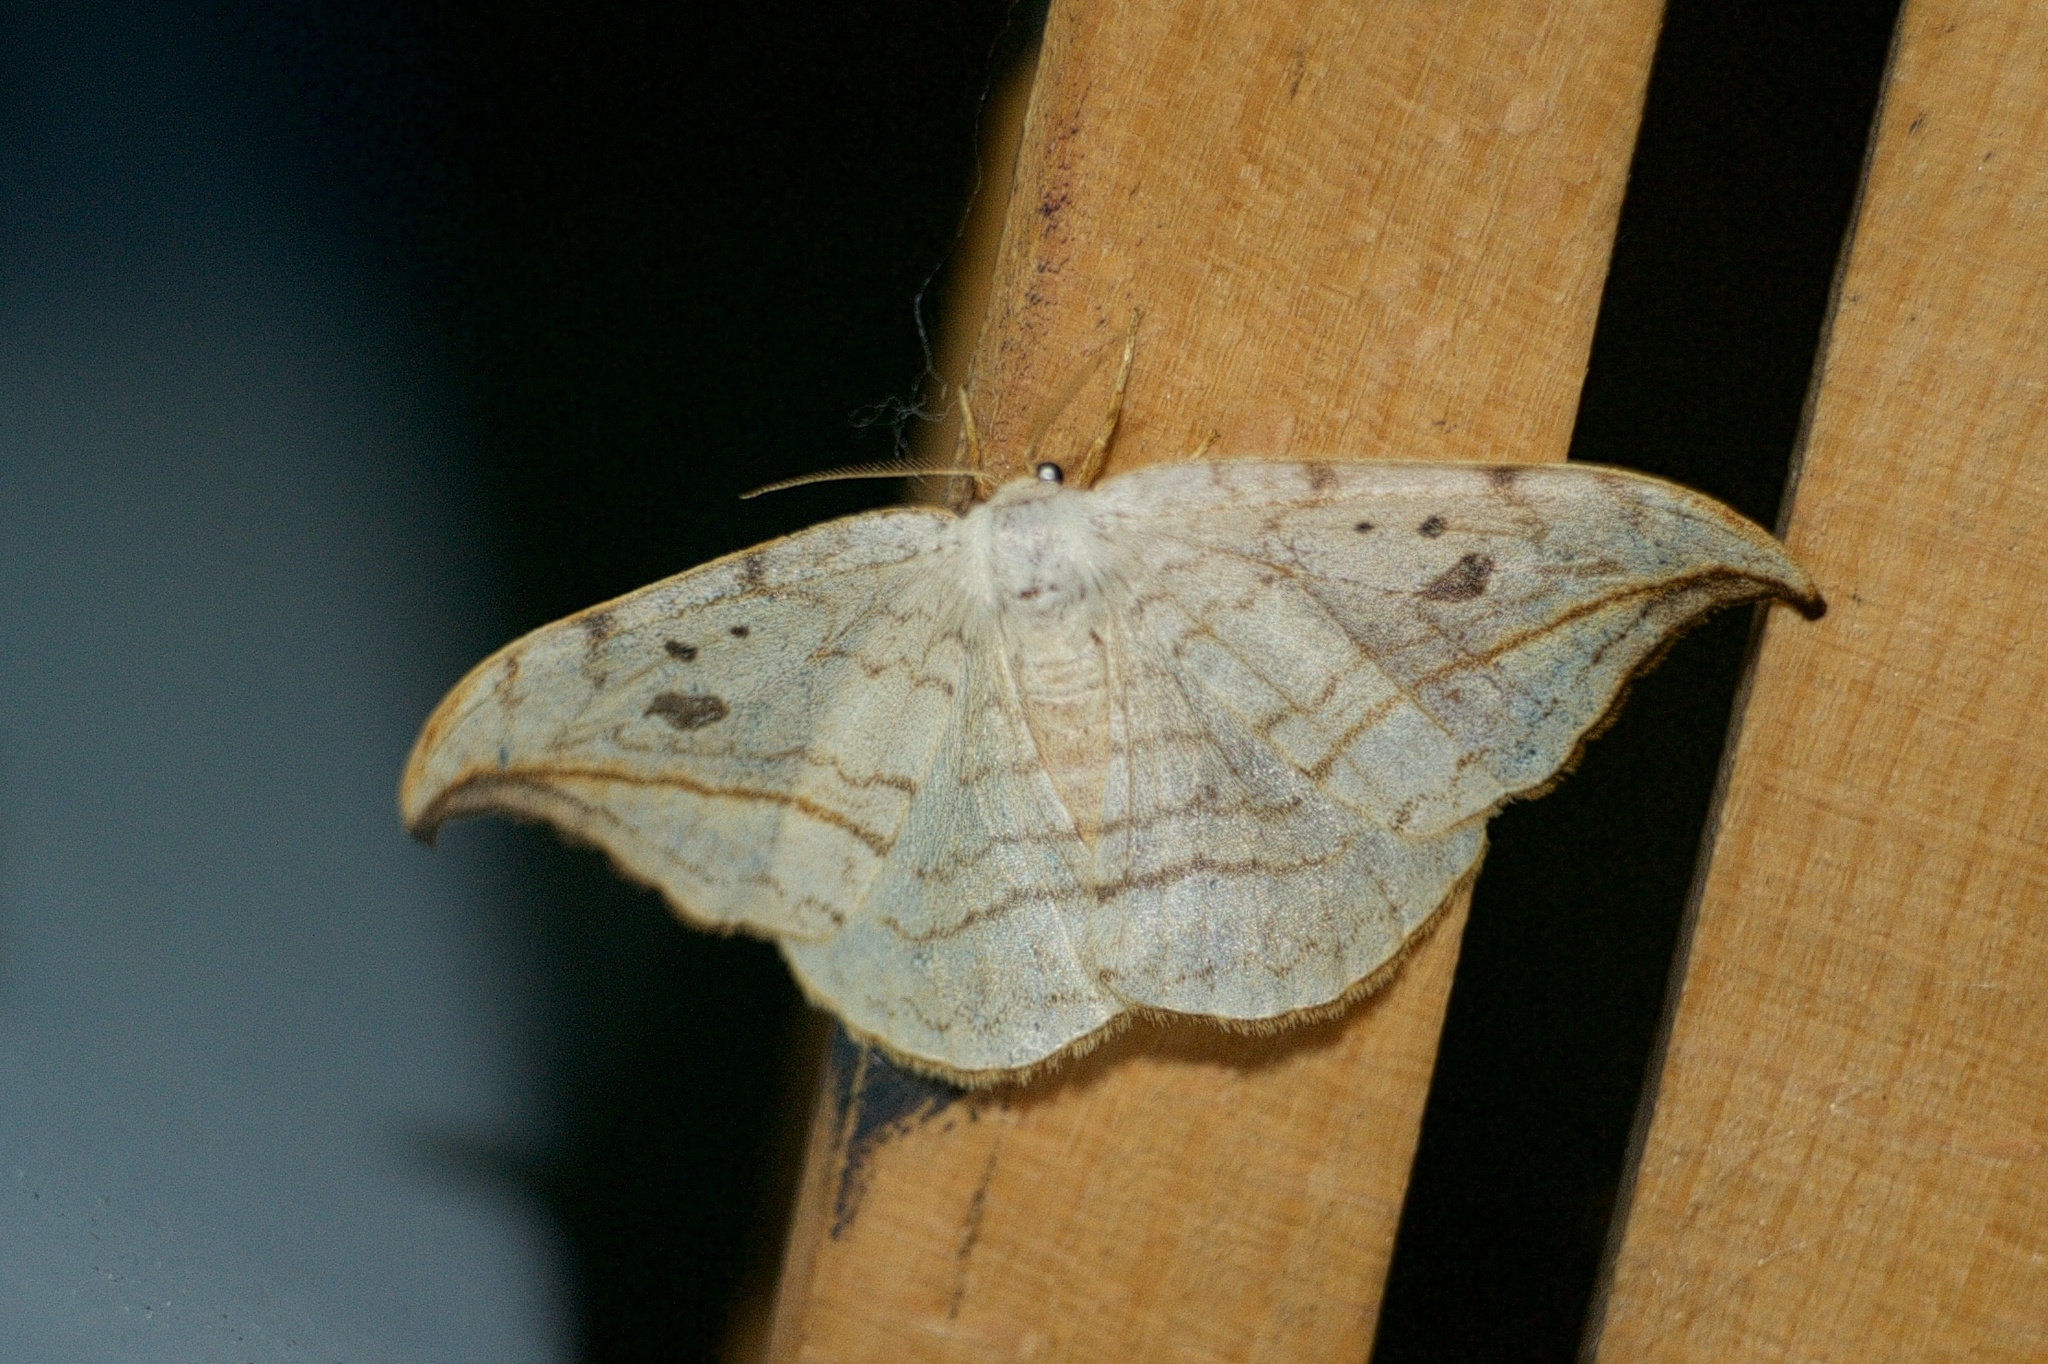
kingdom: Animalia
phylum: Arthropoda
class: Insecta
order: Lepidoptera
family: Drepanidae
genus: Drepana
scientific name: Drepana arcuata
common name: Arched hooktip moth
